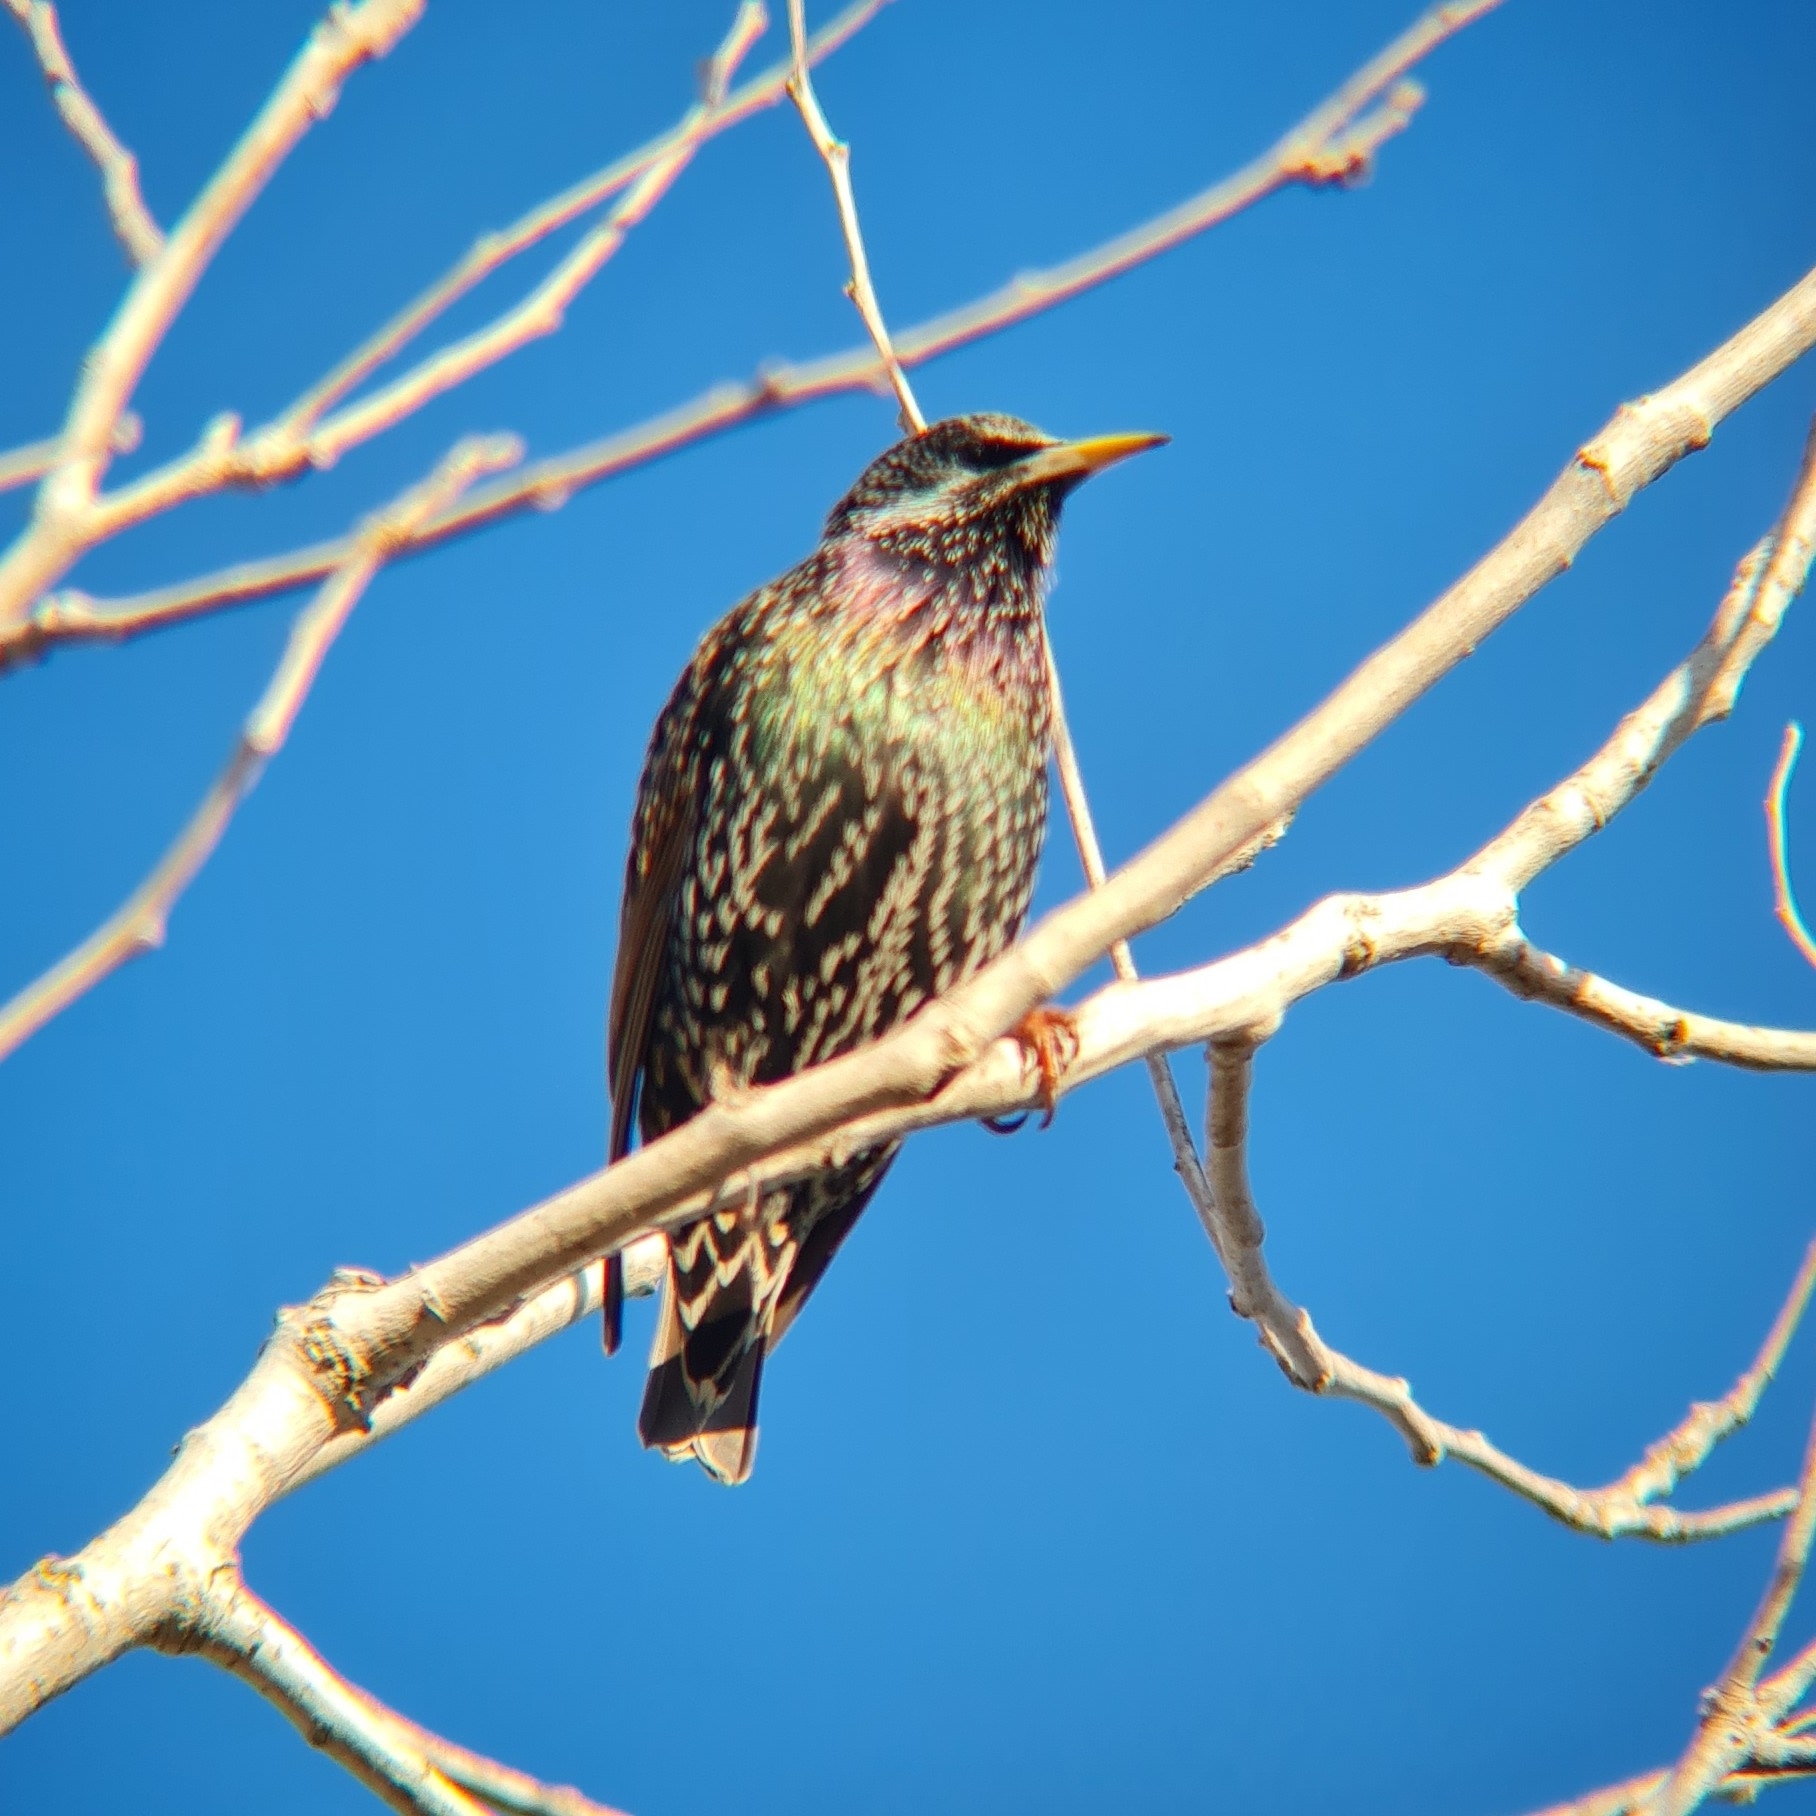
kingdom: Animalia
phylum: Chordata
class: Aves
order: Passeriformes
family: Sturnidae
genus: Sturnus
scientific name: Sturnus vulgaris
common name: Common starling
